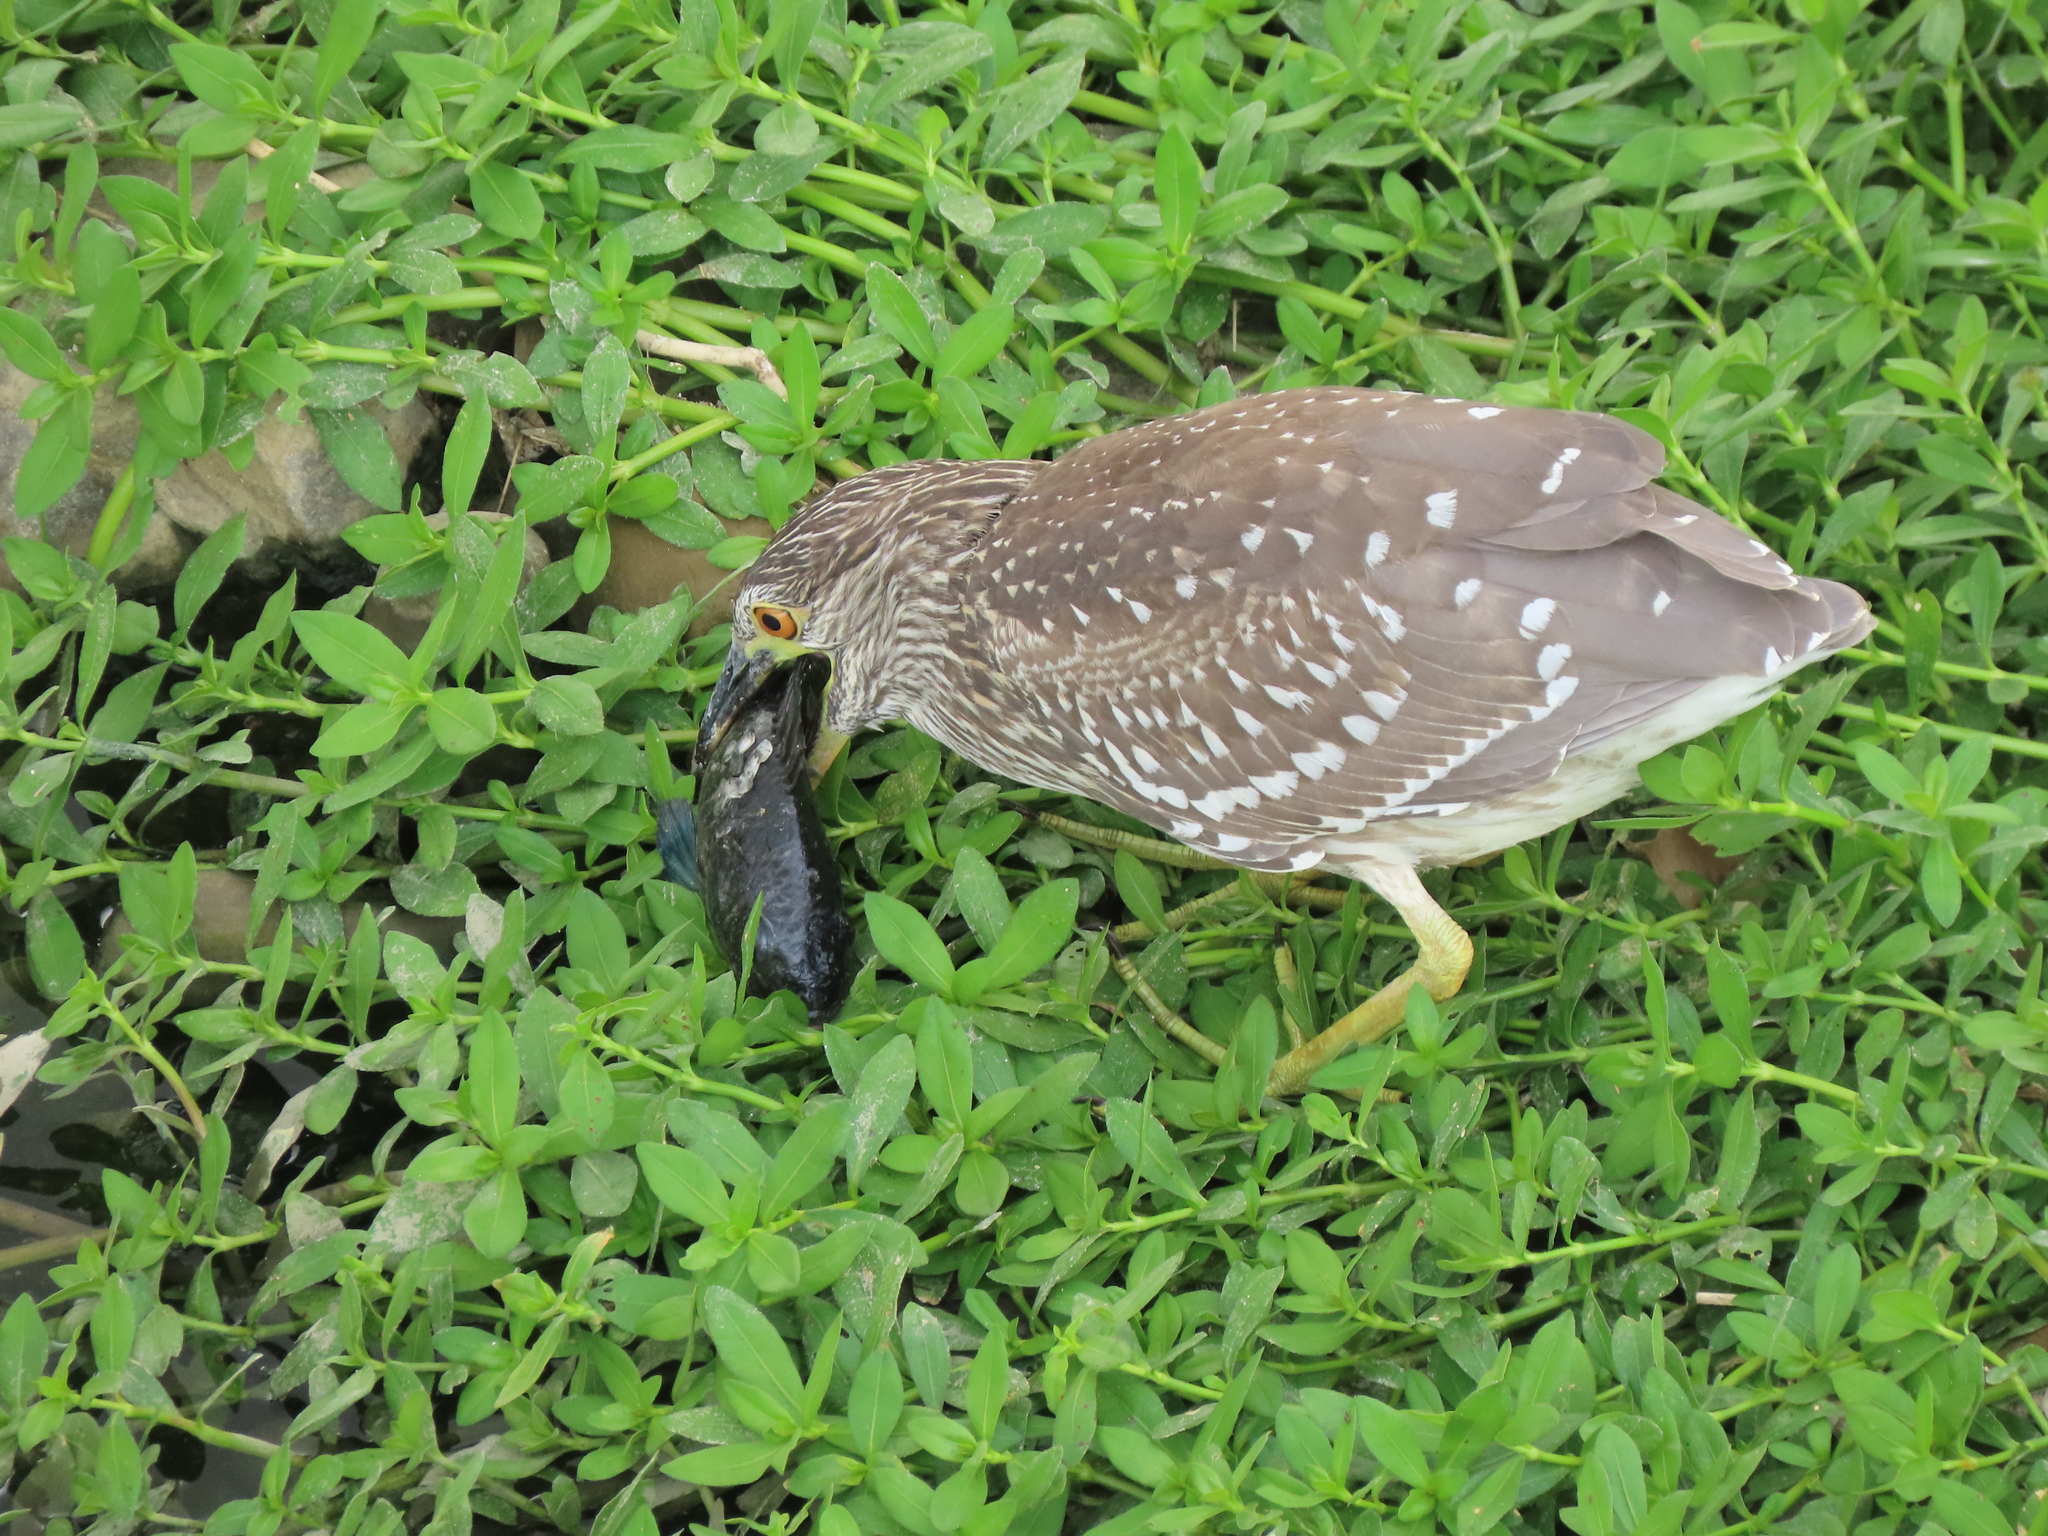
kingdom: Animalia
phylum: Chordata
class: Aves
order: Pelecaniformes
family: Ardeidae
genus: Nycticorax
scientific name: Nycticorax nycticorax
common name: Black-crowned night heron
